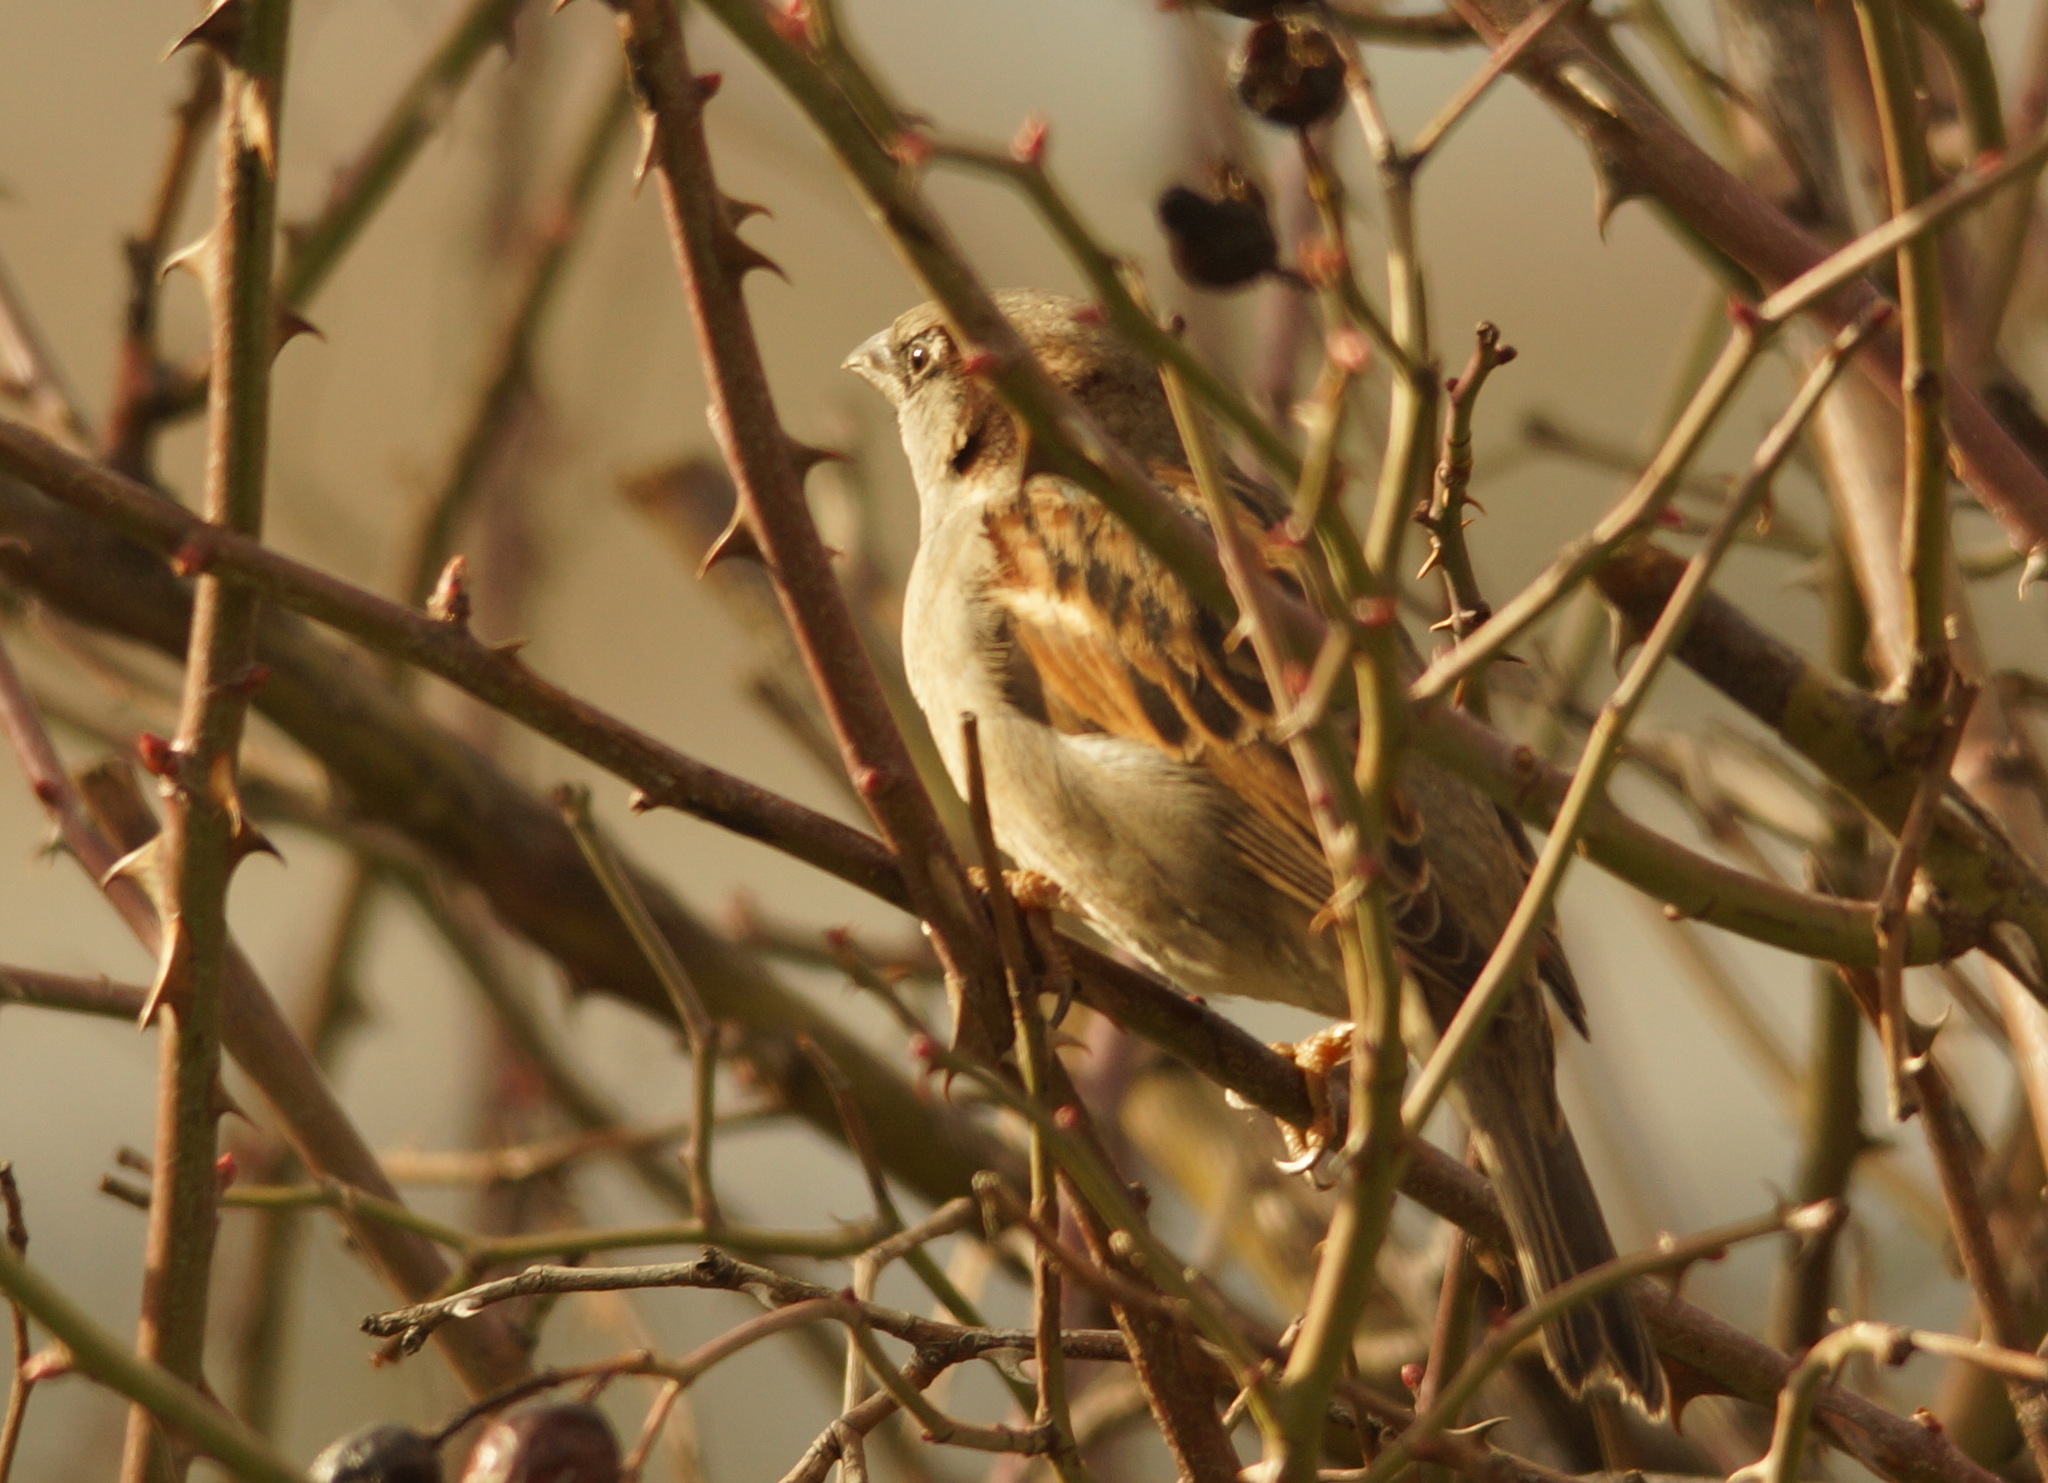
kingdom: Animalia
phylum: Chordata
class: Aves
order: Passeriformes
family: Passeridae
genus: Passer
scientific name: Passer domesticus
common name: House sparrow
